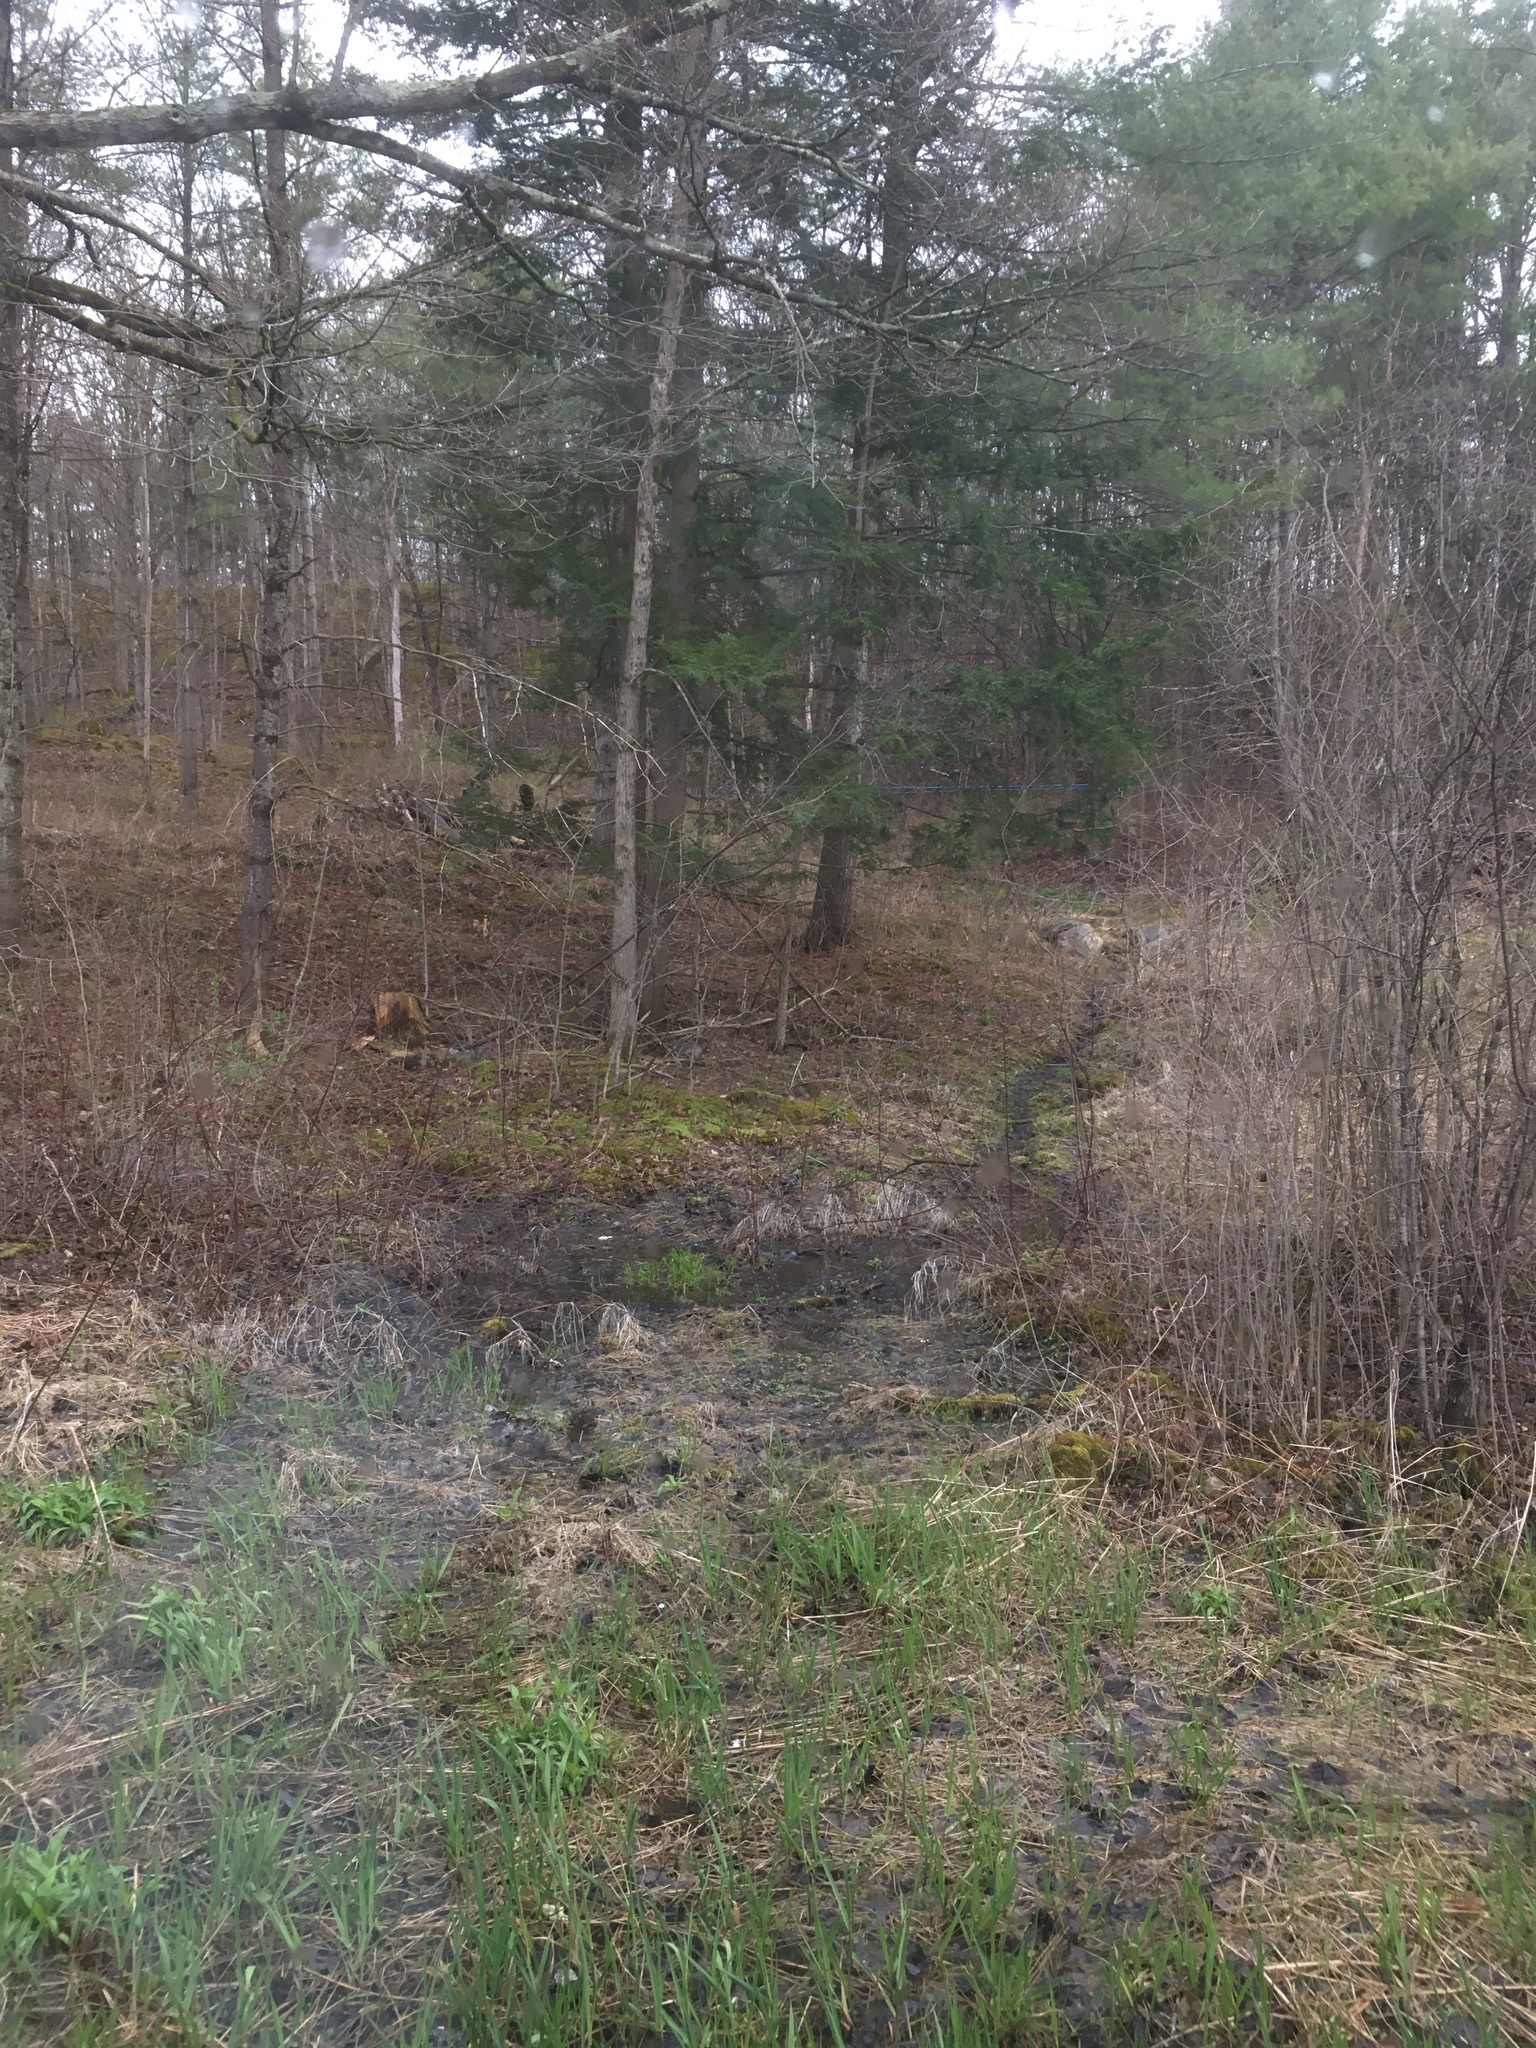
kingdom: Plantae
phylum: Tracheophyta
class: Pinopsida
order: Pinales
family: Pinaceae
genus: Tsuga
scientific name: Tsuga canadensis
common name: Eastern hemlock
